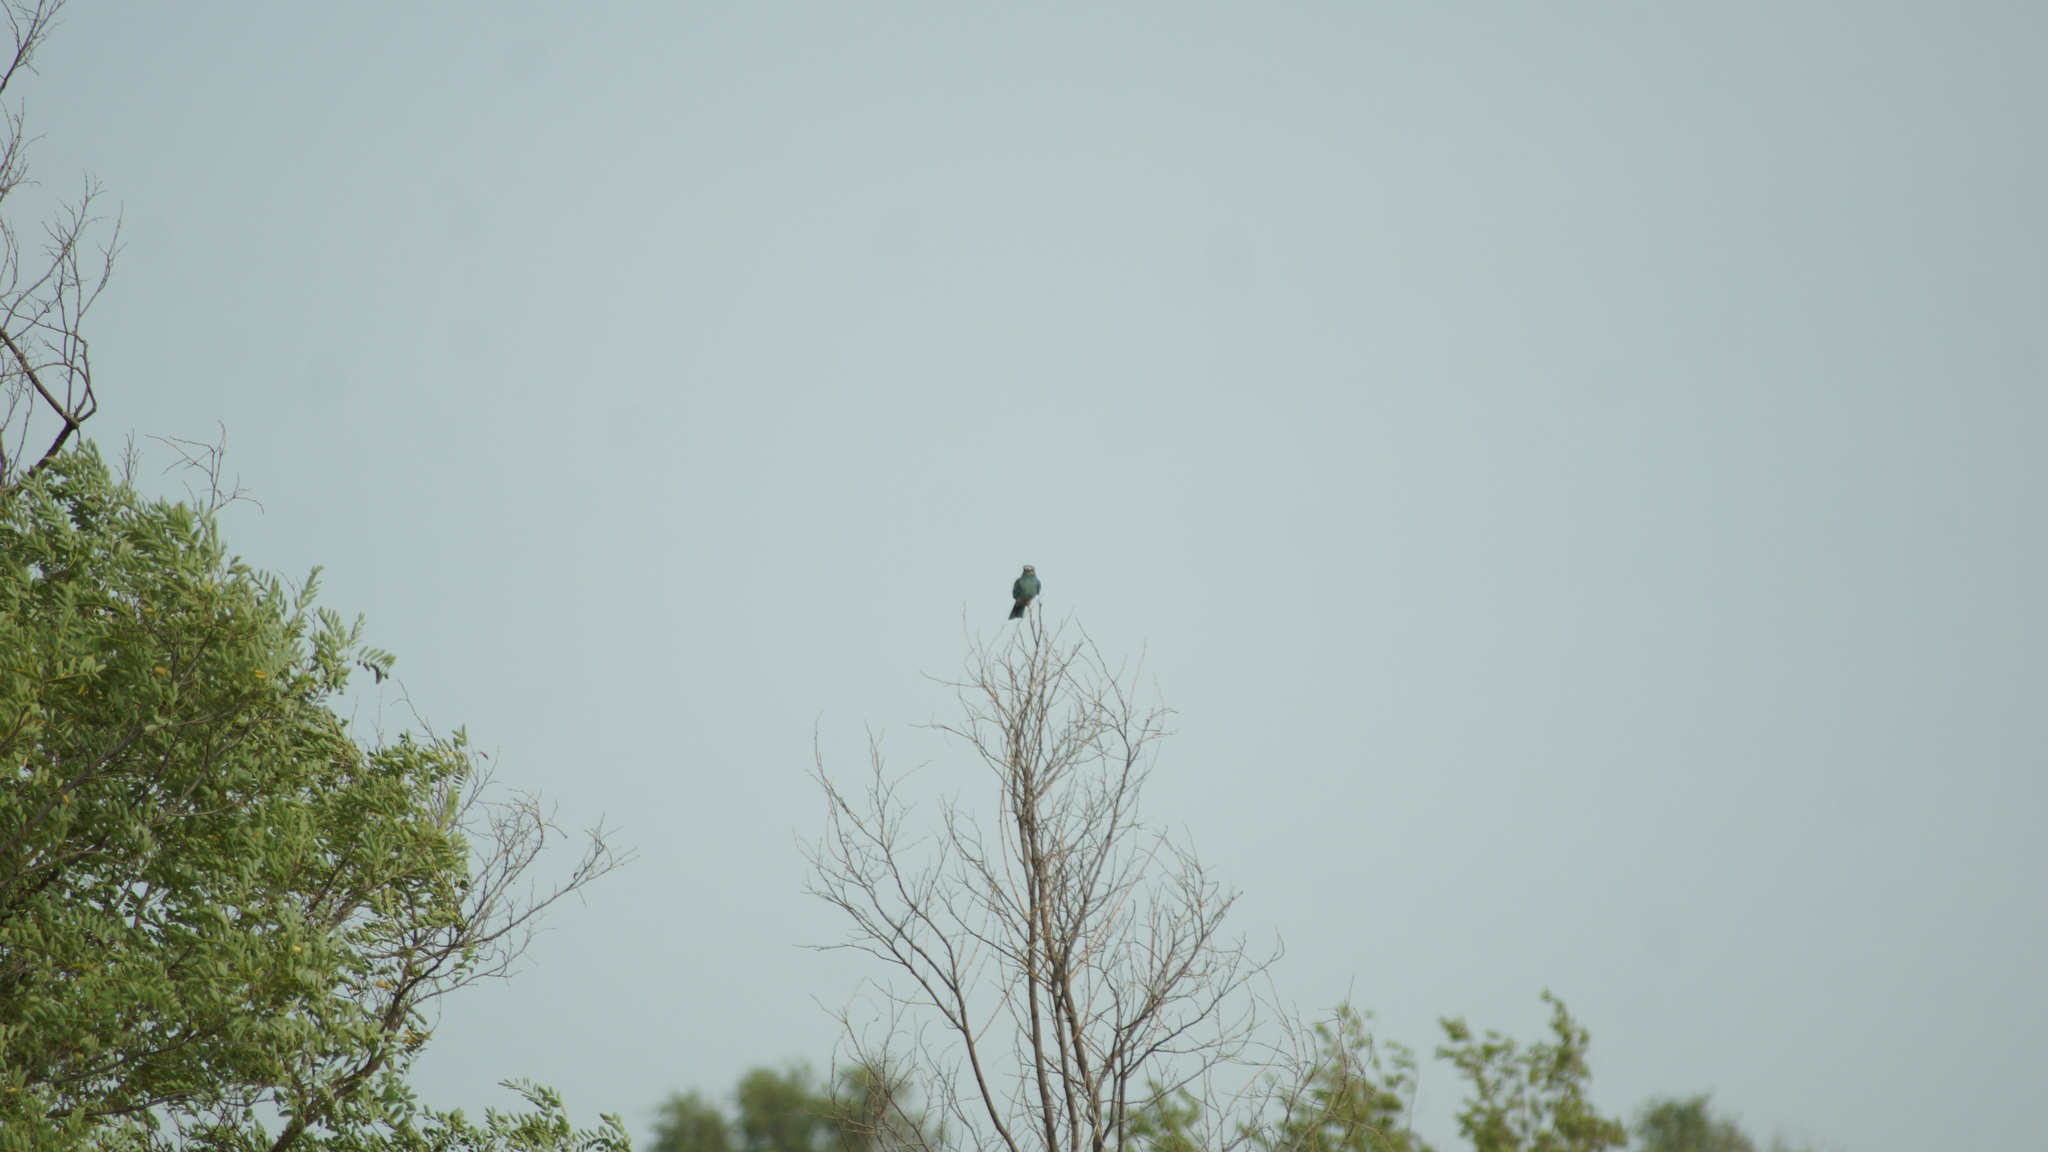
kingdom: Animalia
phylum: Chordata
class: Aves
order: Coraciiformes
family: Coraciidae
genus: Coracias
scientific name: Coracias garrulus
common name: European roller
